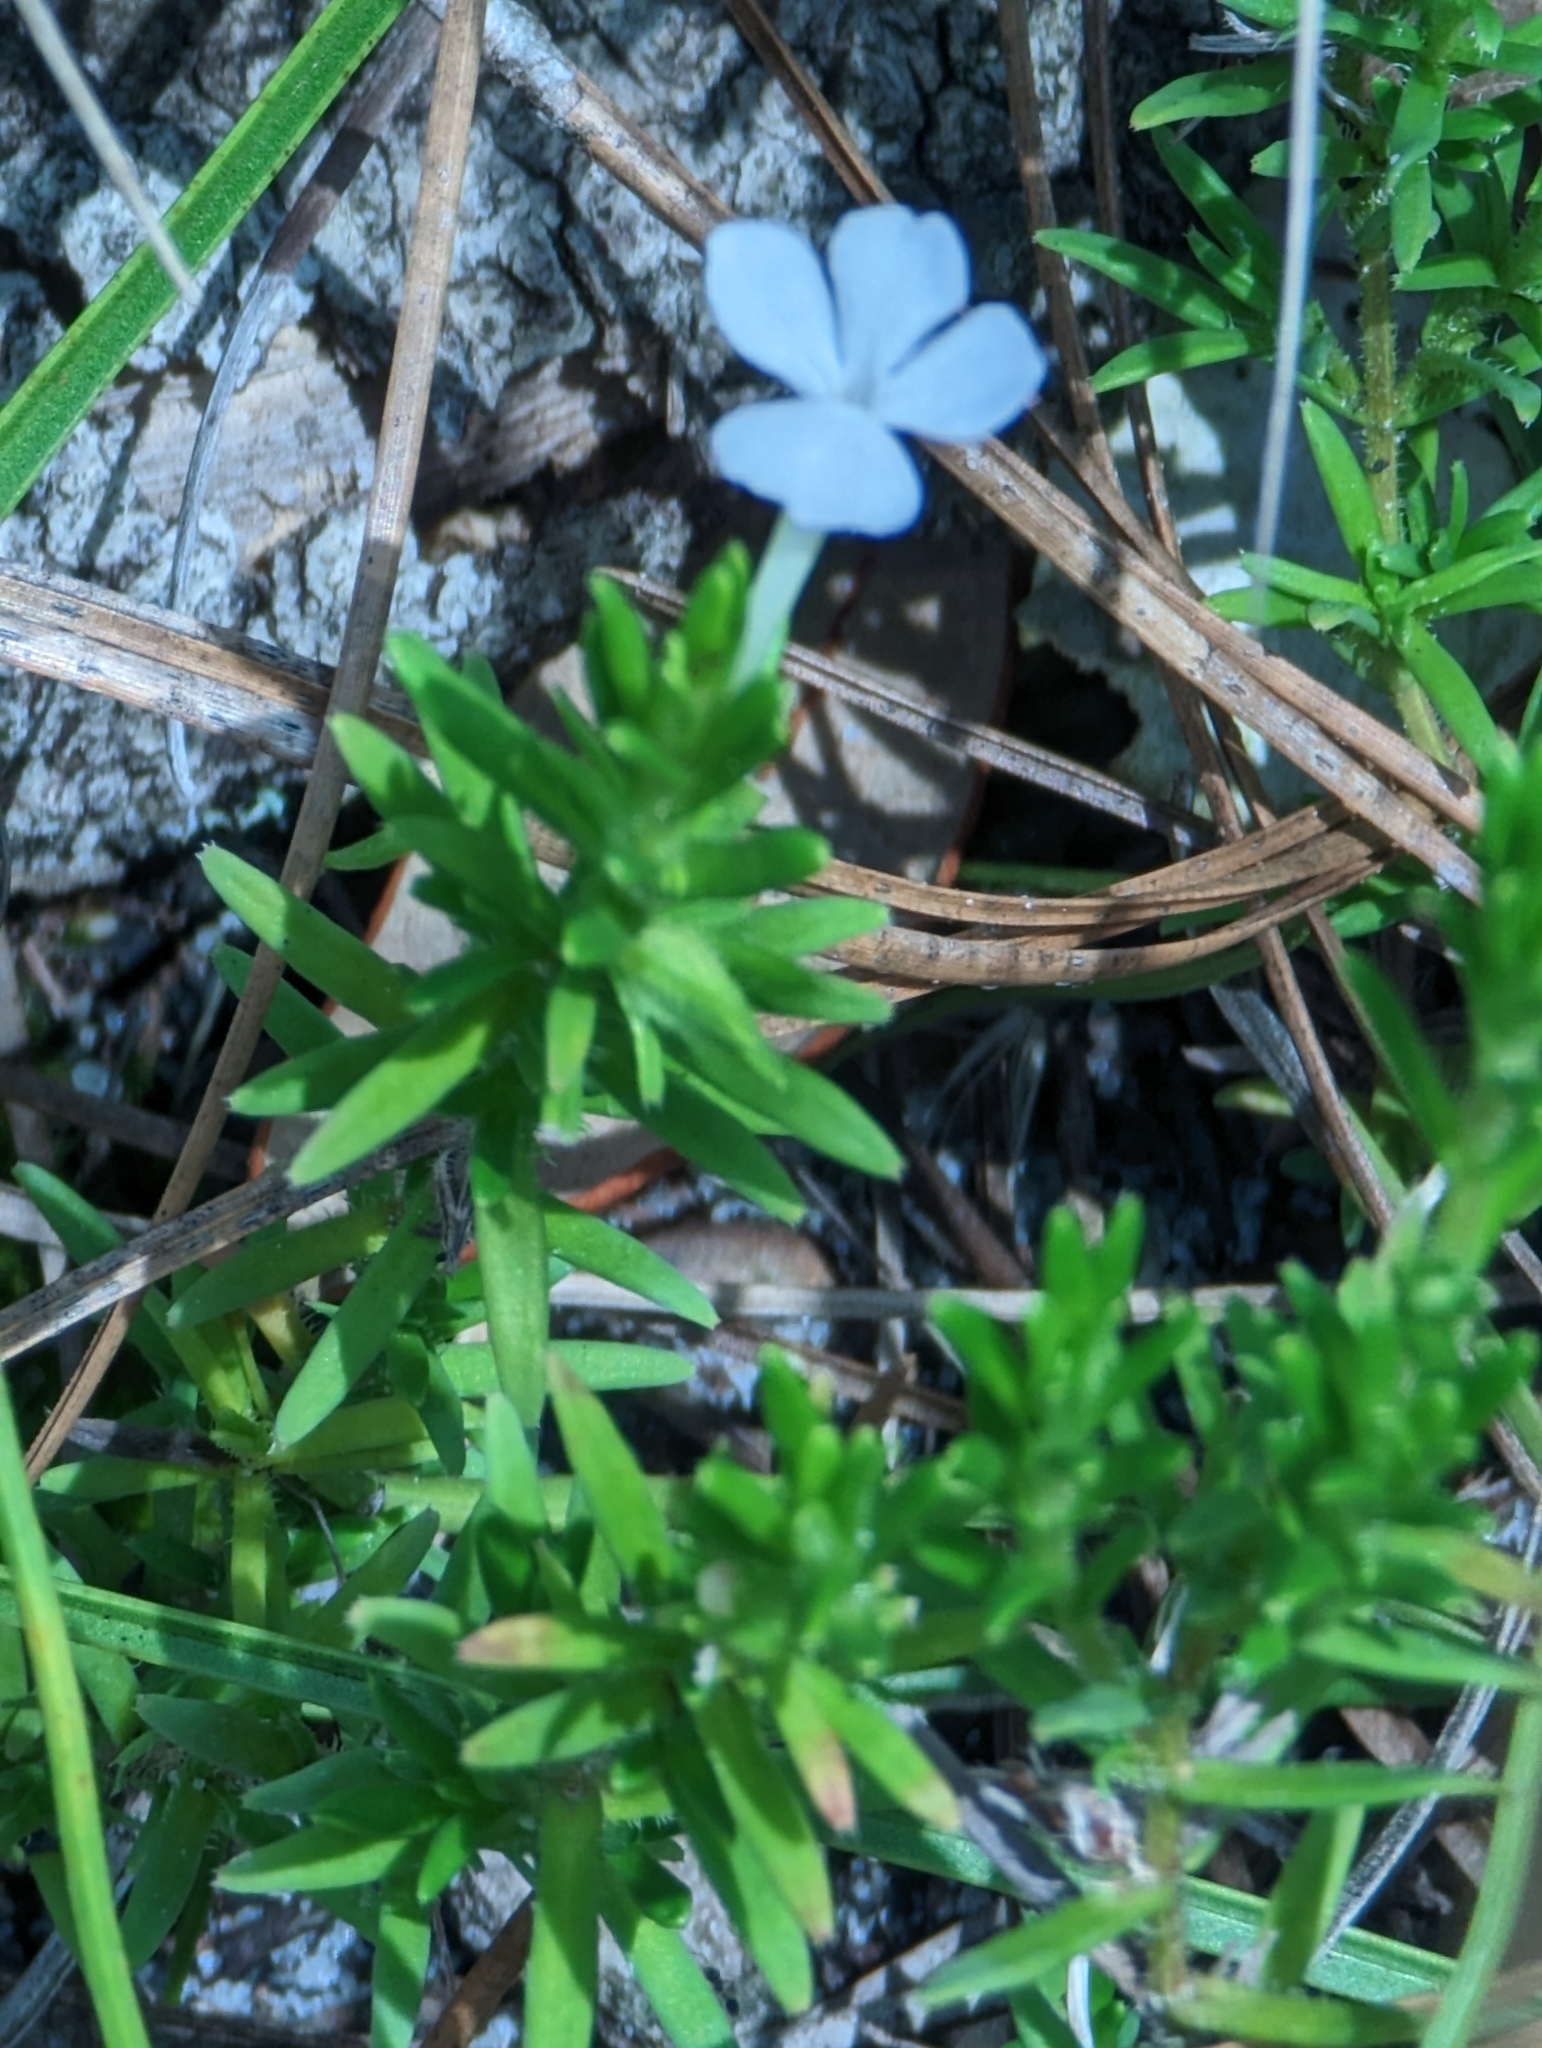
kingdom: Plantae
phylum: Tracheophyta
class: Magnoliopsida
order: Lamiales
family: Plantaginaceae
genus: Gratiola
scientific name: Gratiola hispida
